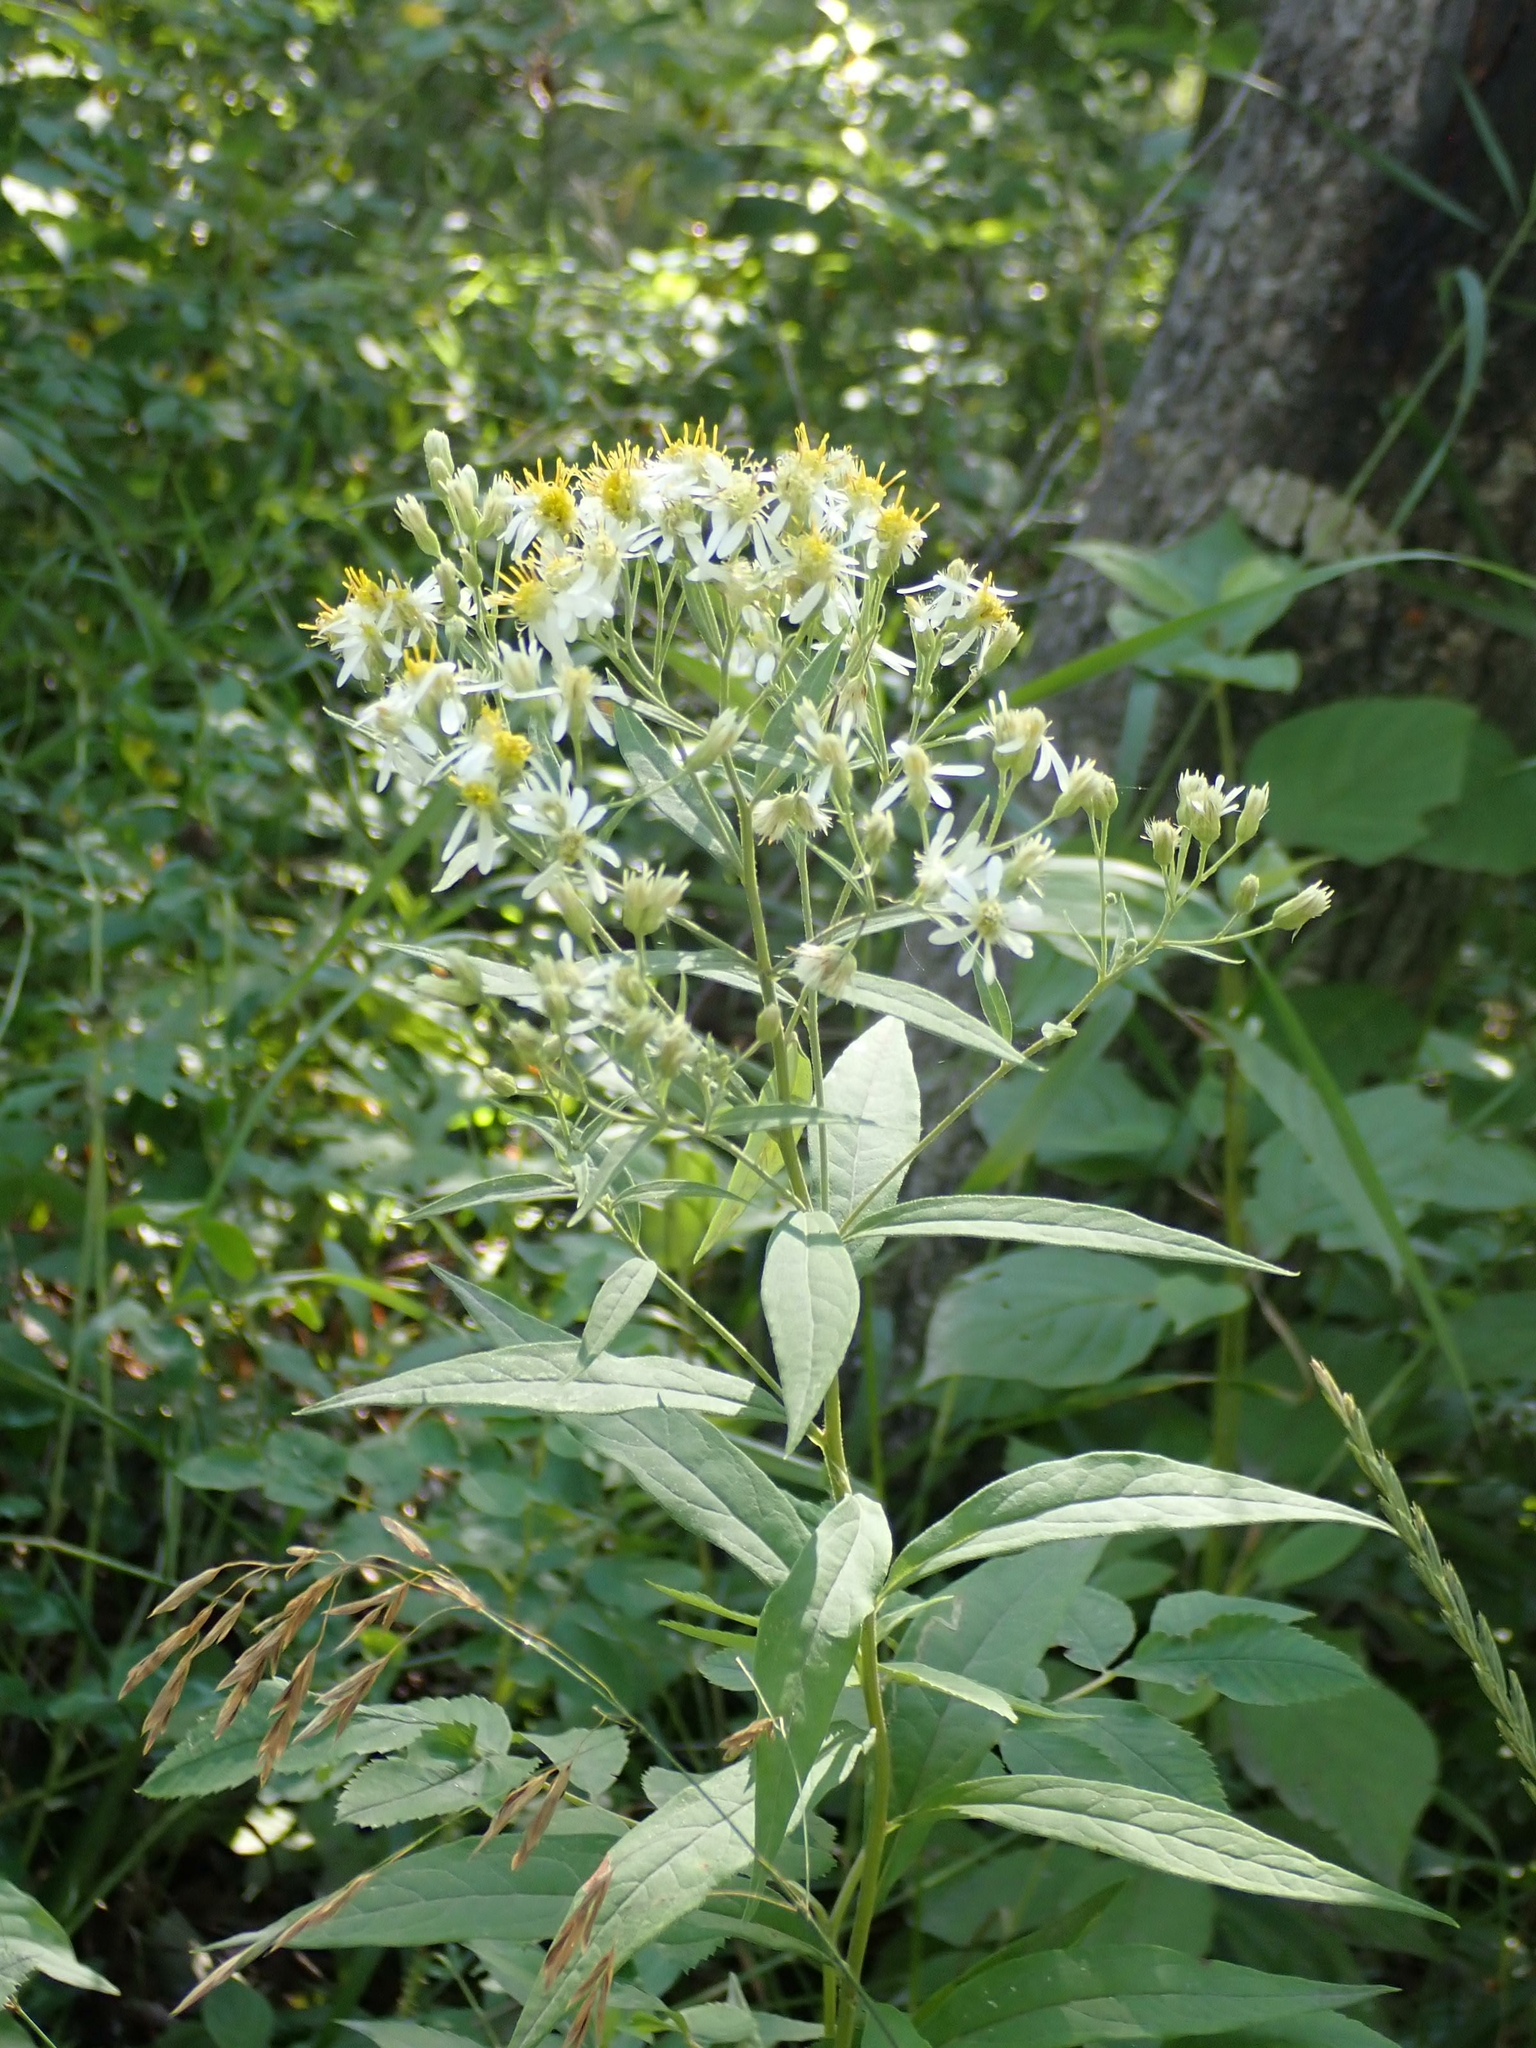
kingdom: Plantae
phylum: Tracheophyta
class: Magnoliopsida
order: Asterales
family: Asteraceae
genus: Doellingeria
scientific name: Doellingeria umbellata
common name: Flat-top white aster
